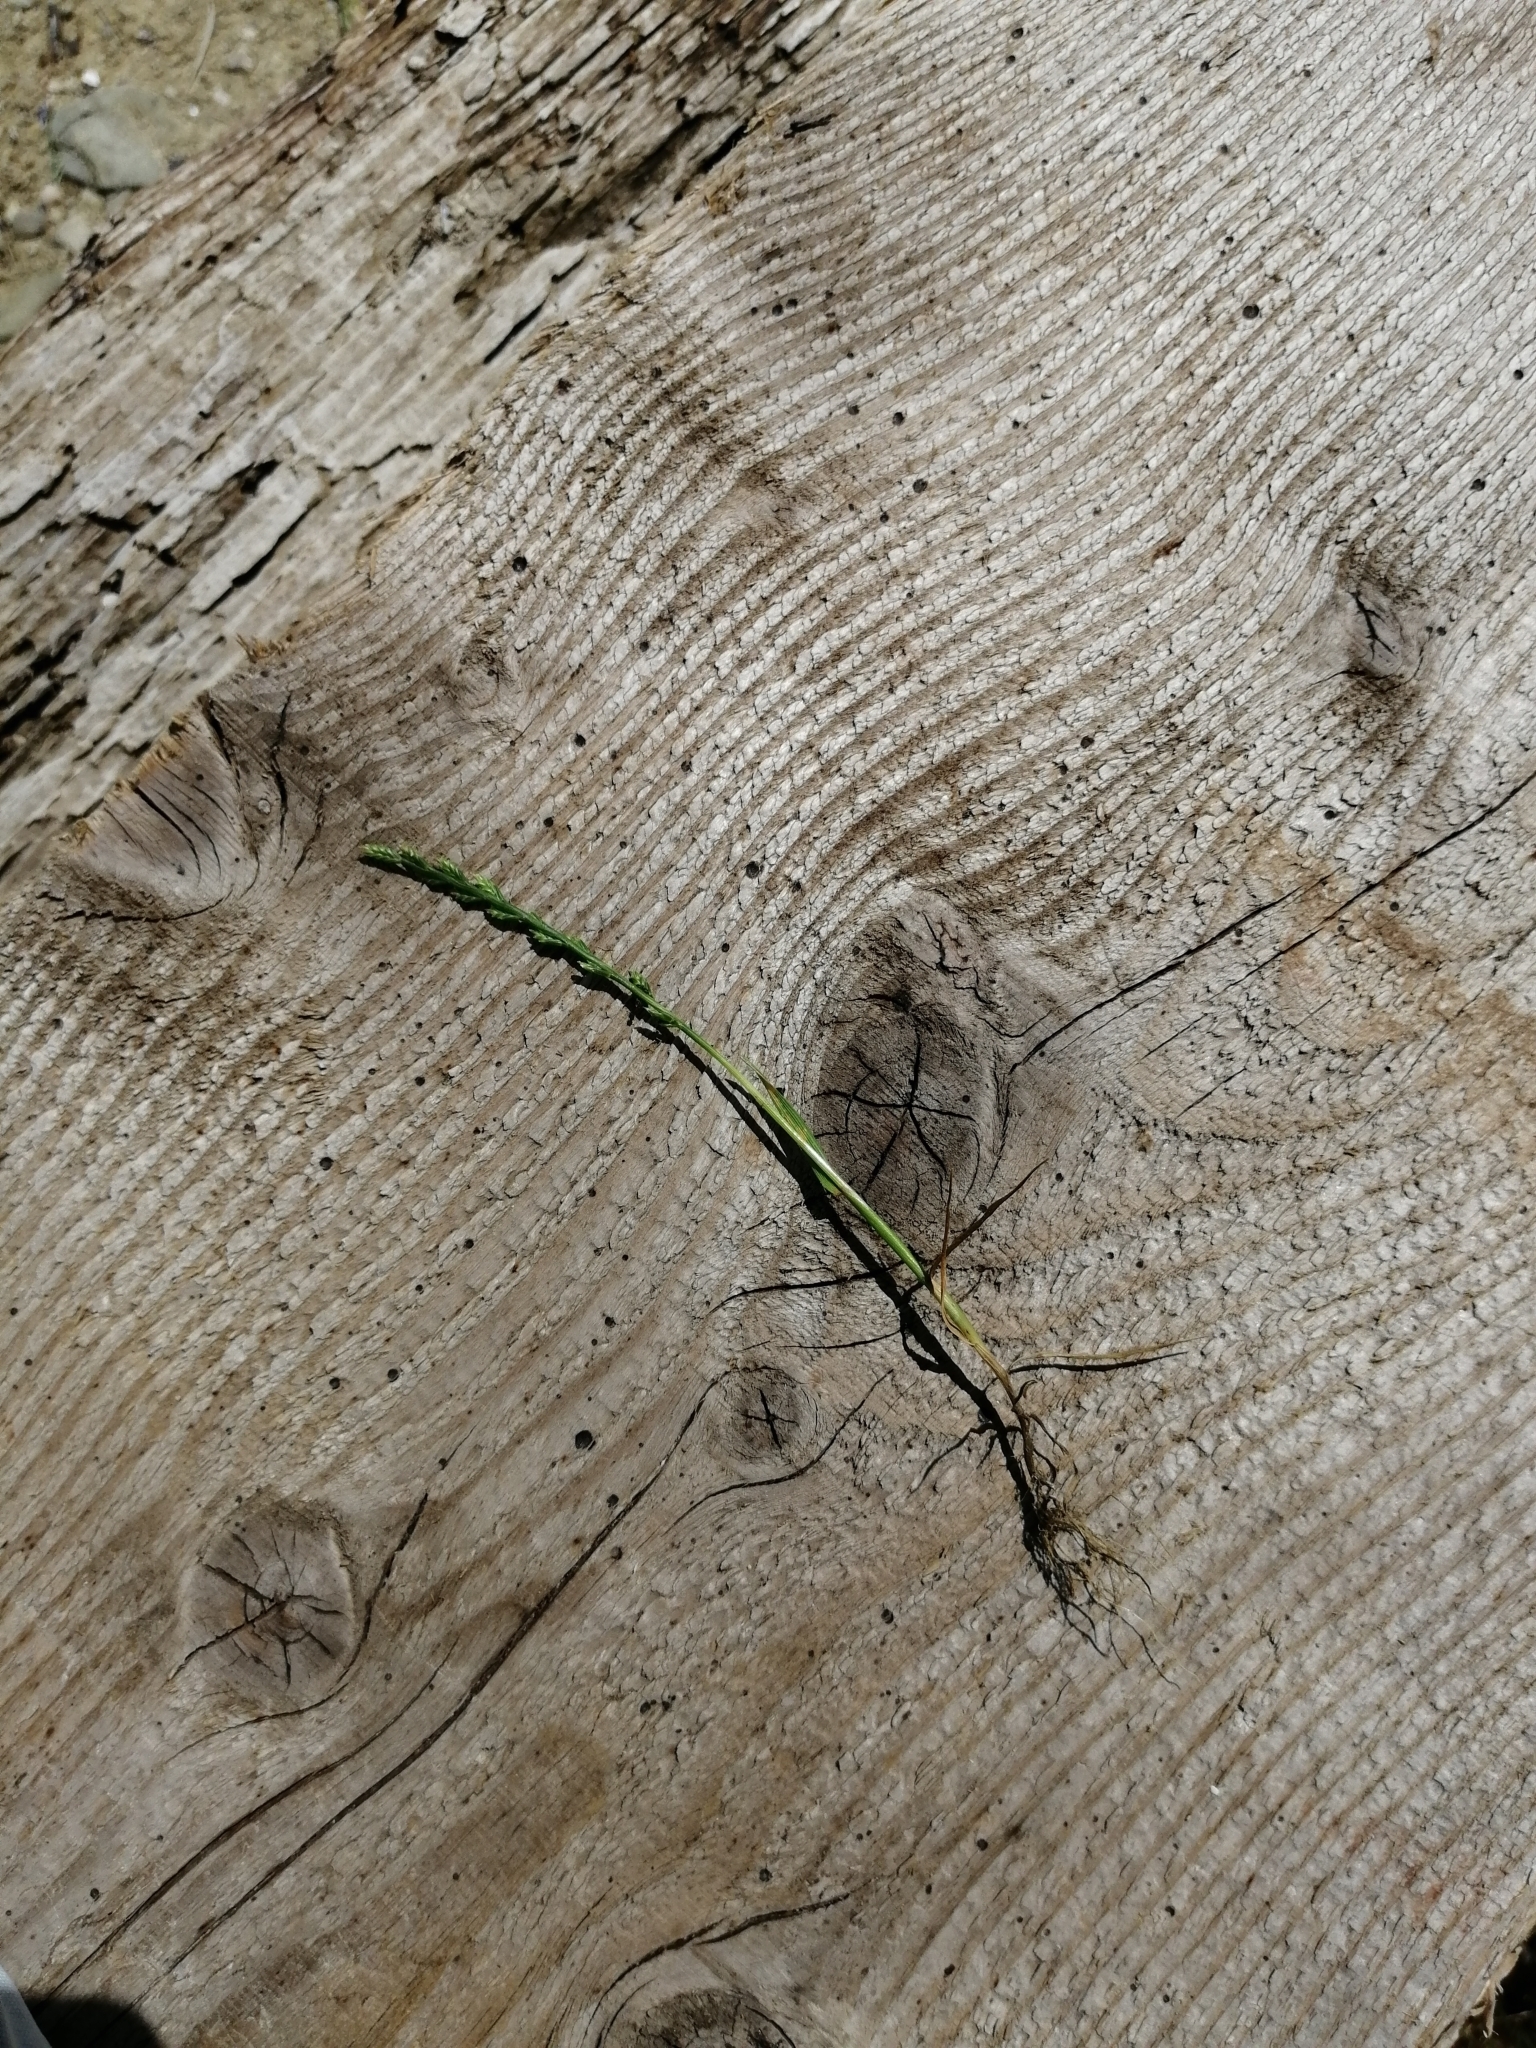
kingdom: Plantae
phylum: Tracheophyta
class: Liliopsida
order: Poales
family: Poaceae
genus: Catapodium
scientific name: Catapodium marinum
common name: Sea fern-grass
